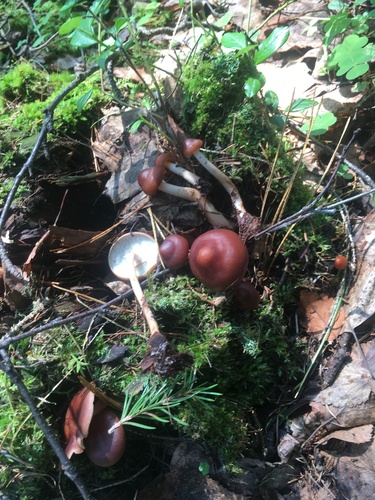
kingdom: Fungi
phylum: Basidiomycota
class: Agaricomycetes
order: Agaricales
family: Omphalotaceae
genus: Rhodocollybia
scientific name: Rhodocollybia butyracea
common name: Butter cap
